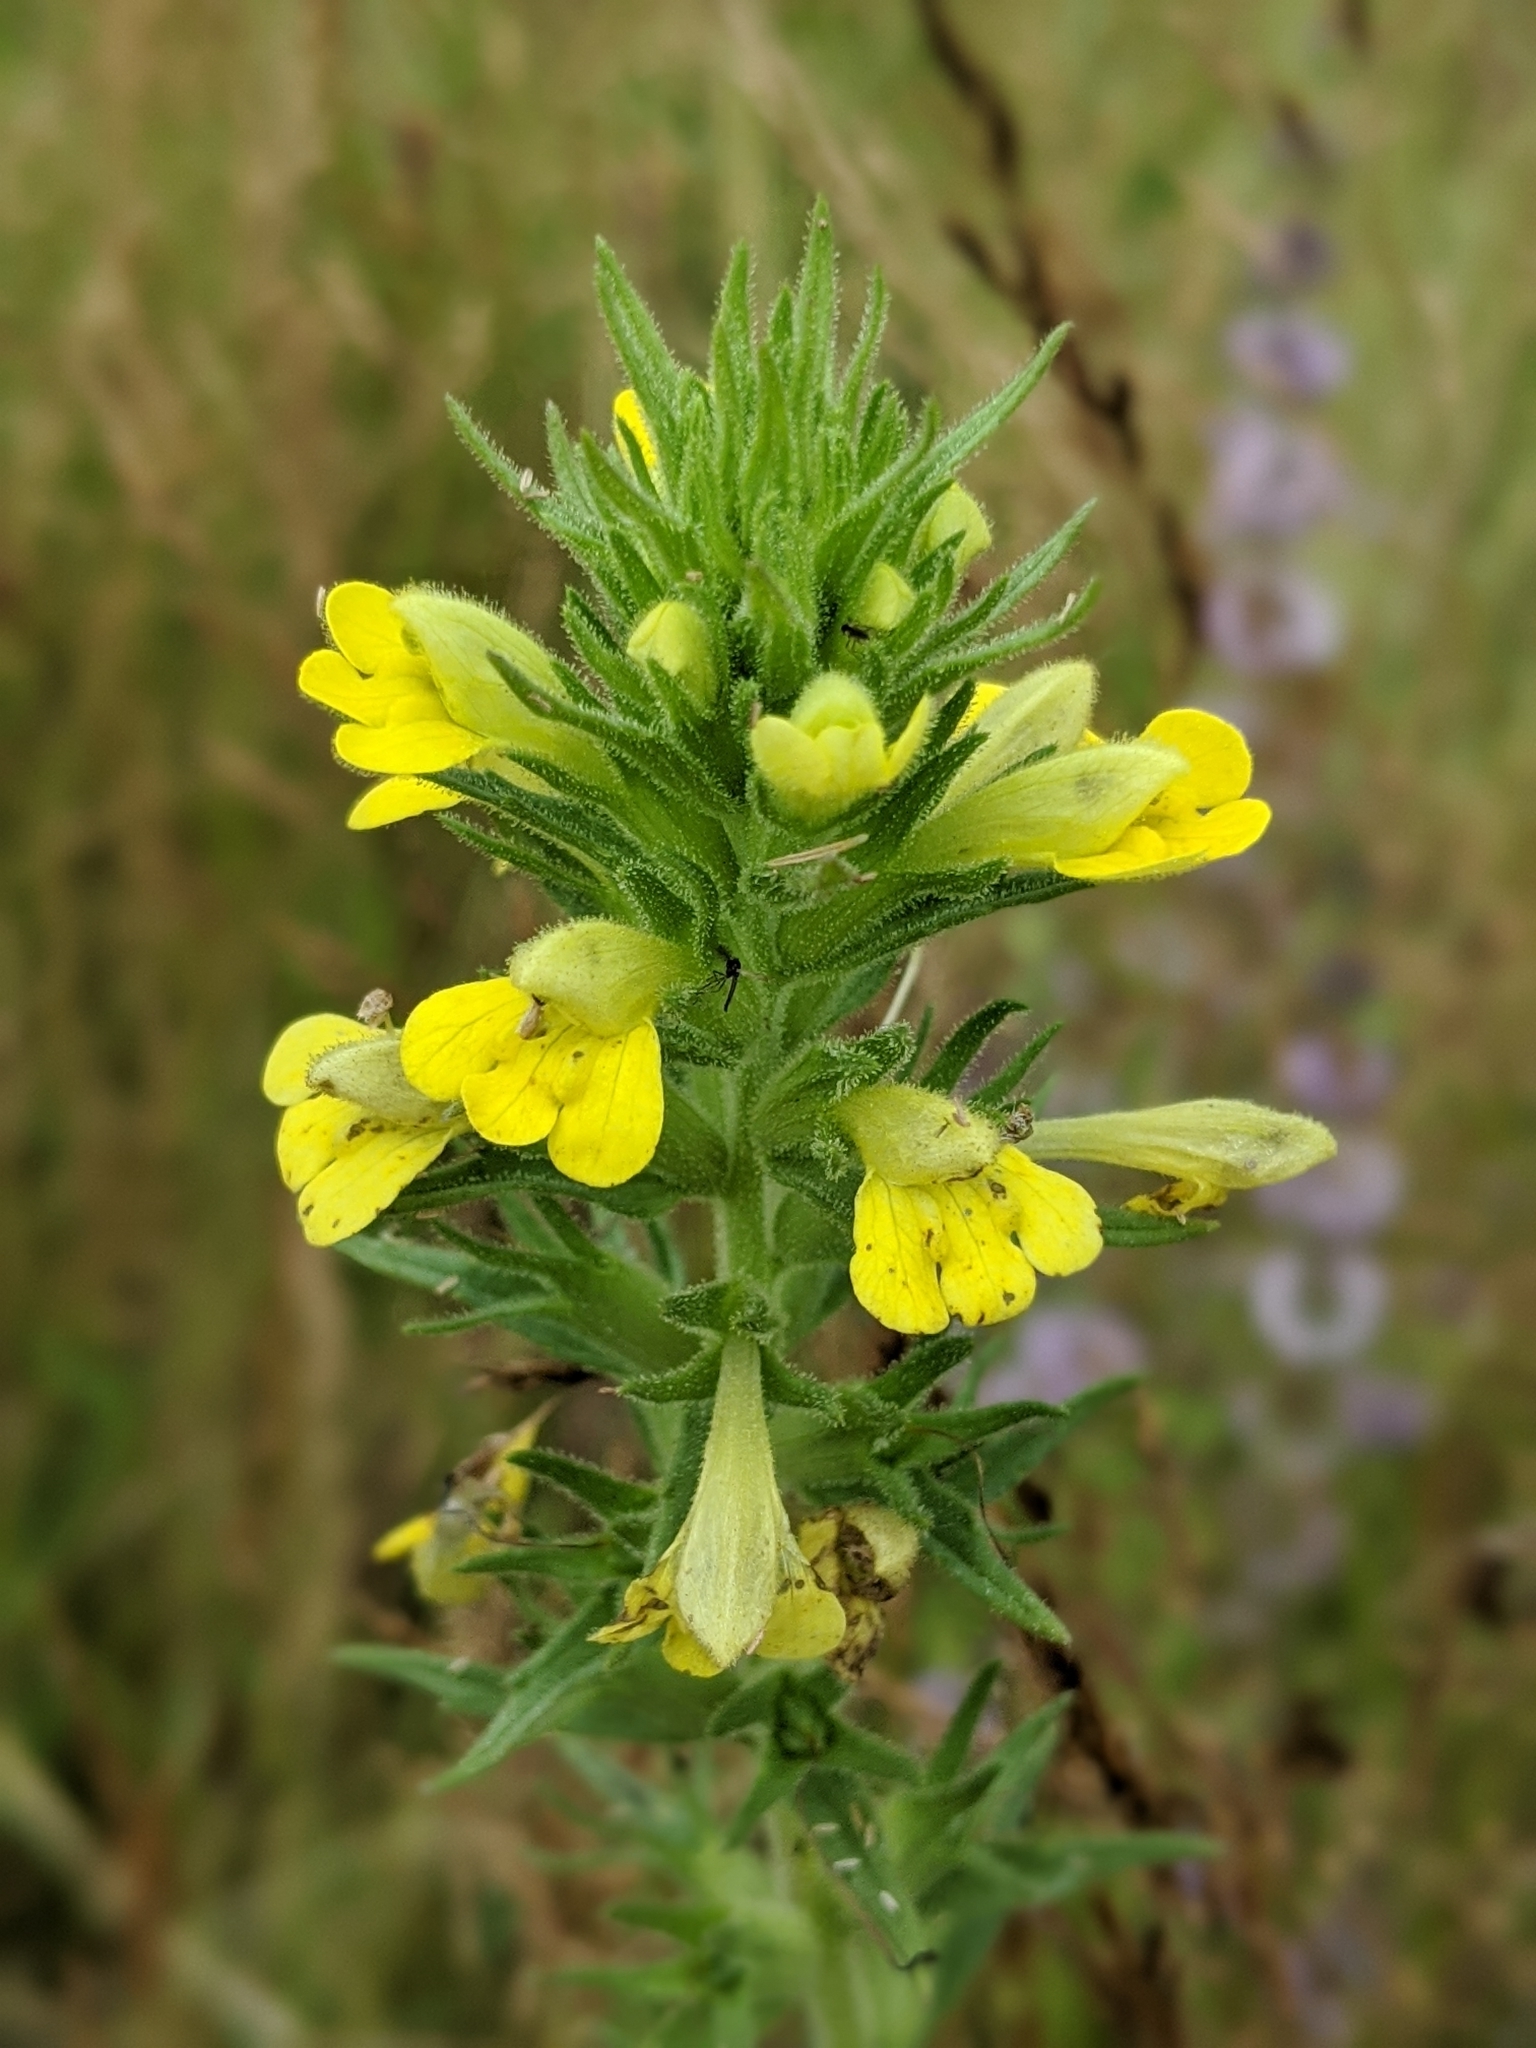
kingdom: Plantae
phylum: Tracheophyta
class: Magnoliopsida
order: Lamiales
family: Orobanchaceae
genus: Bellardia
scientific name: Bellardia viscosa
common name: Sticky parentucellia
